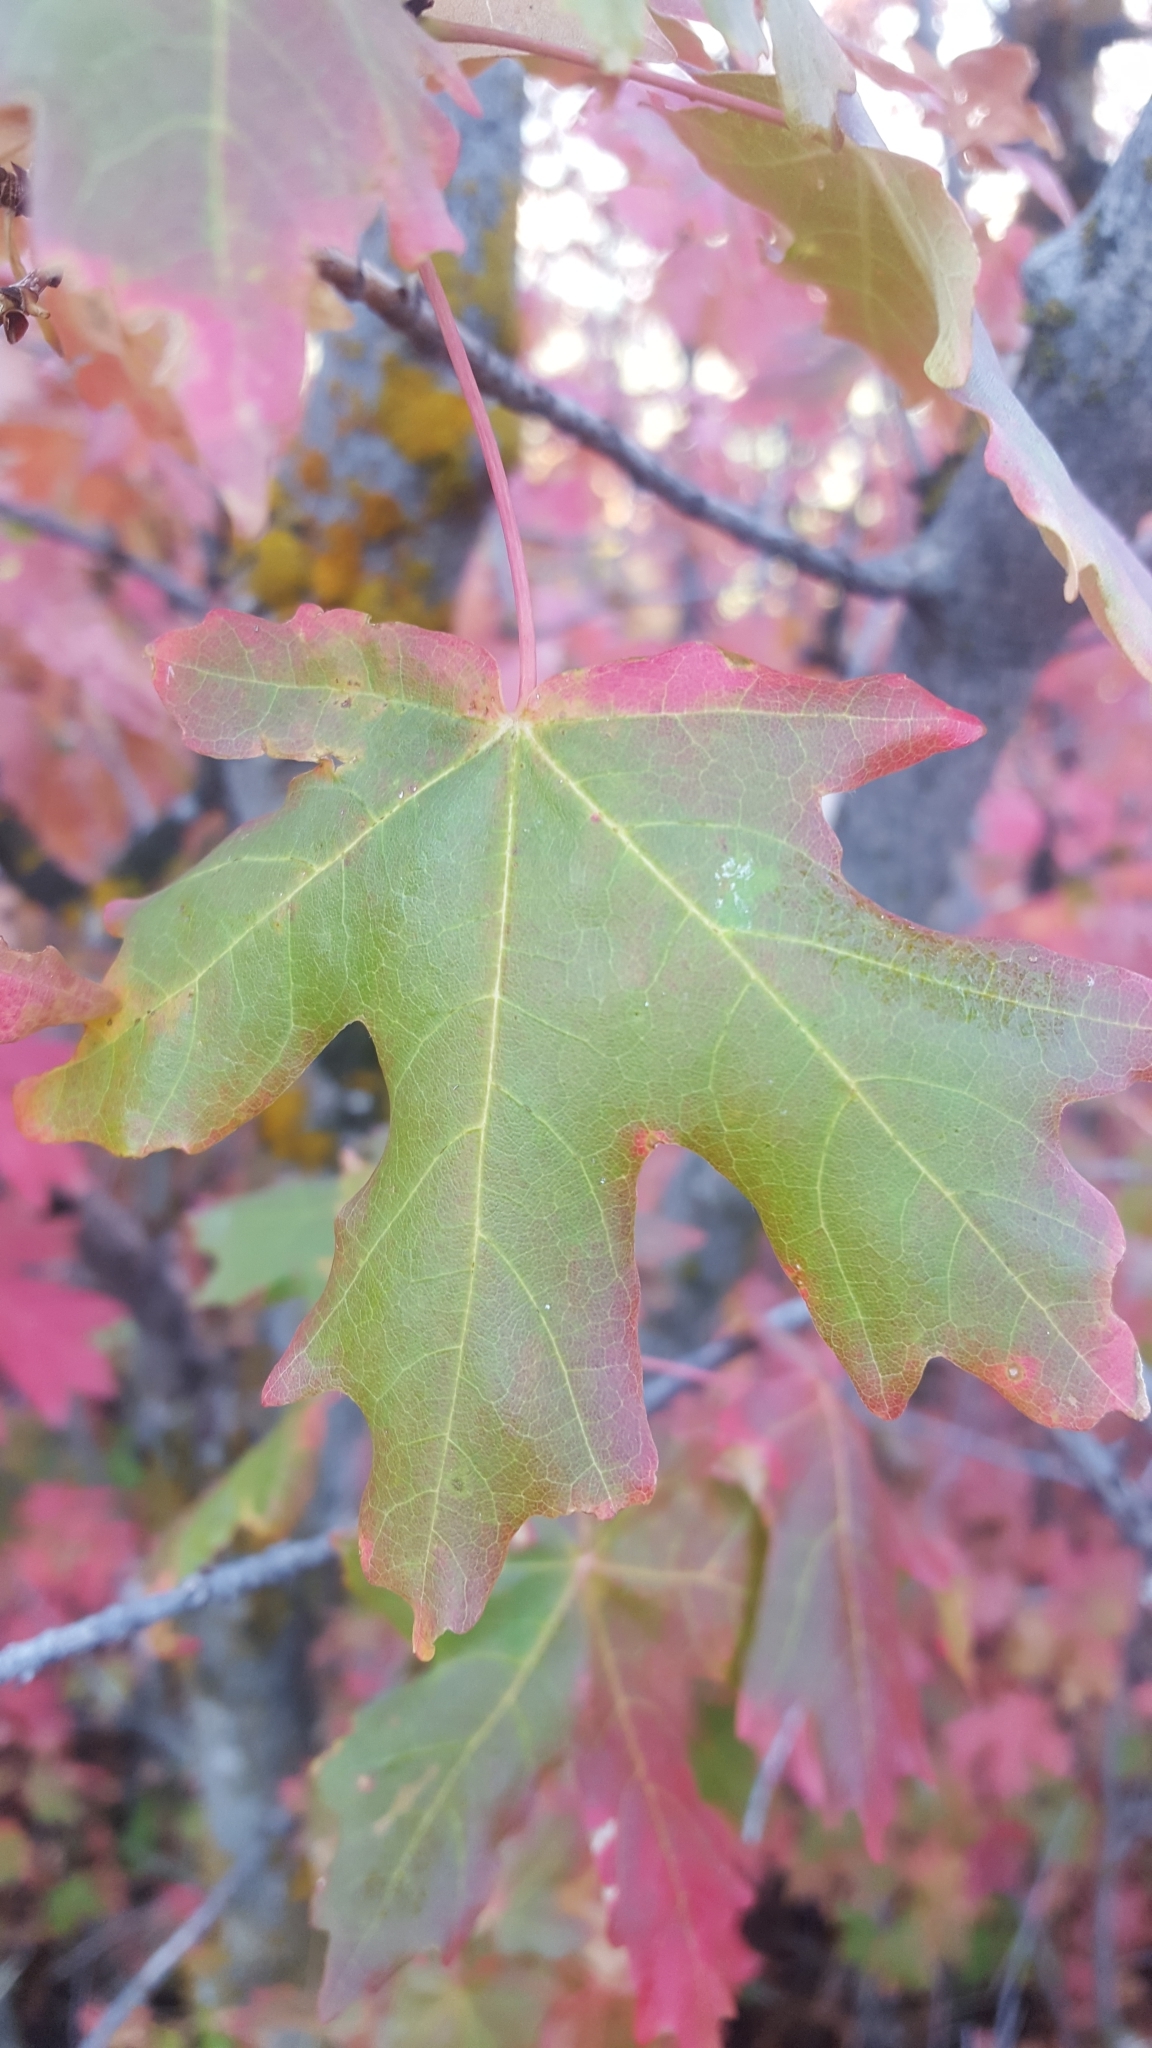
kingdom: Plantae
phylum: Tracheophyta
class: Magnoliopsida
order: Sapindales
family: Sapindaceae
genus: Acer
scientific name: Acer grandidentatum
